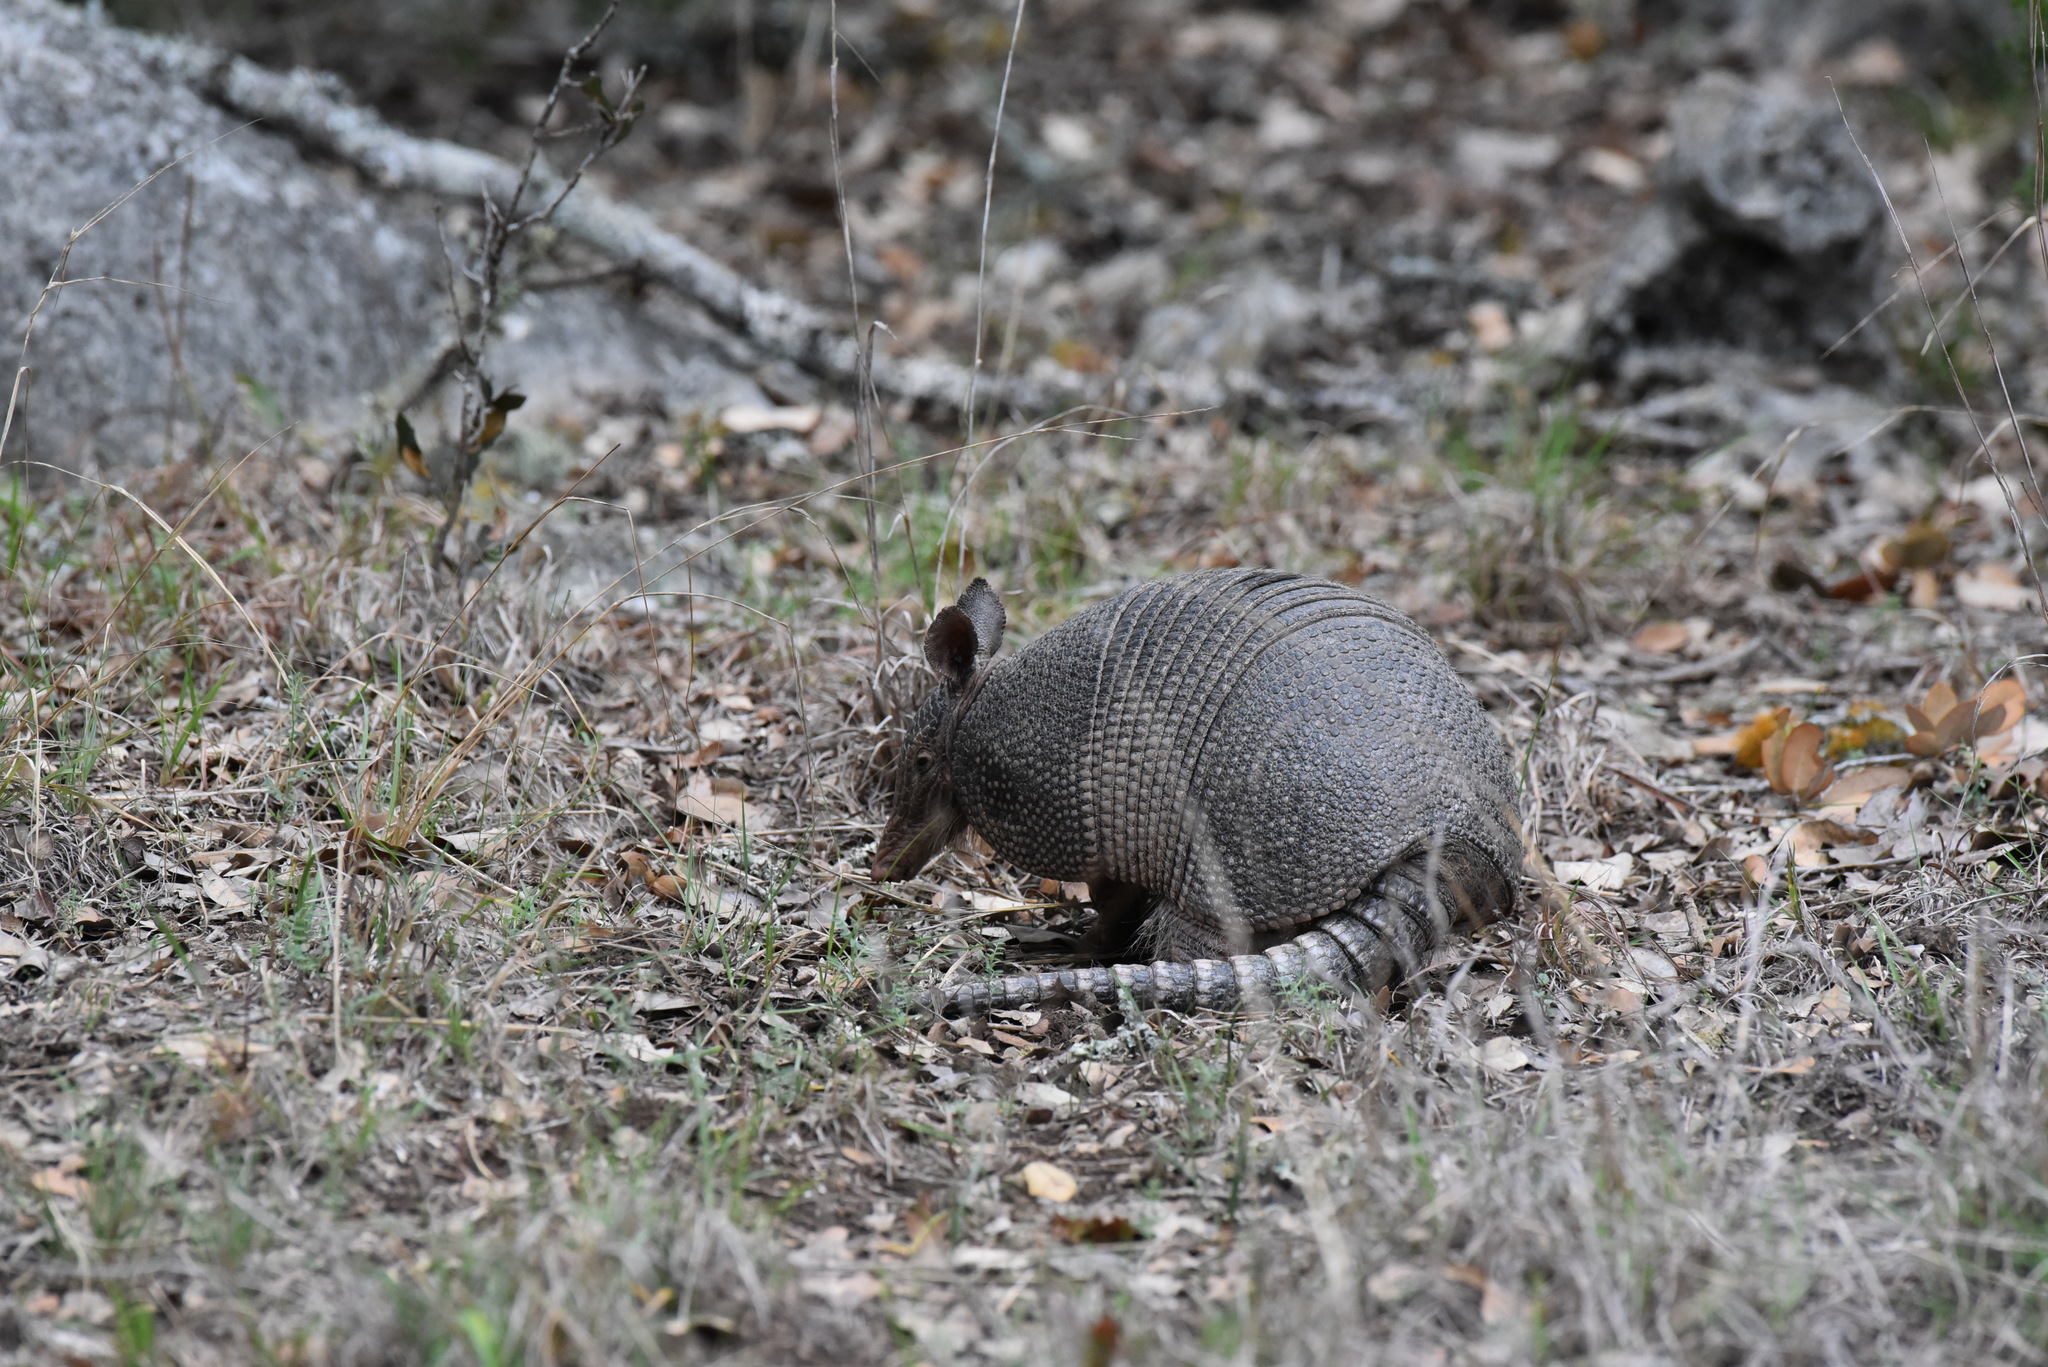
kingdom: Animalia
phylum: Chordata
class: Mammalia
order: Cingulata
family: Dasypodidae
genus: Dasypus
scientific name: Dasypus novemcinctus
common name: Nine-banded armadillo
